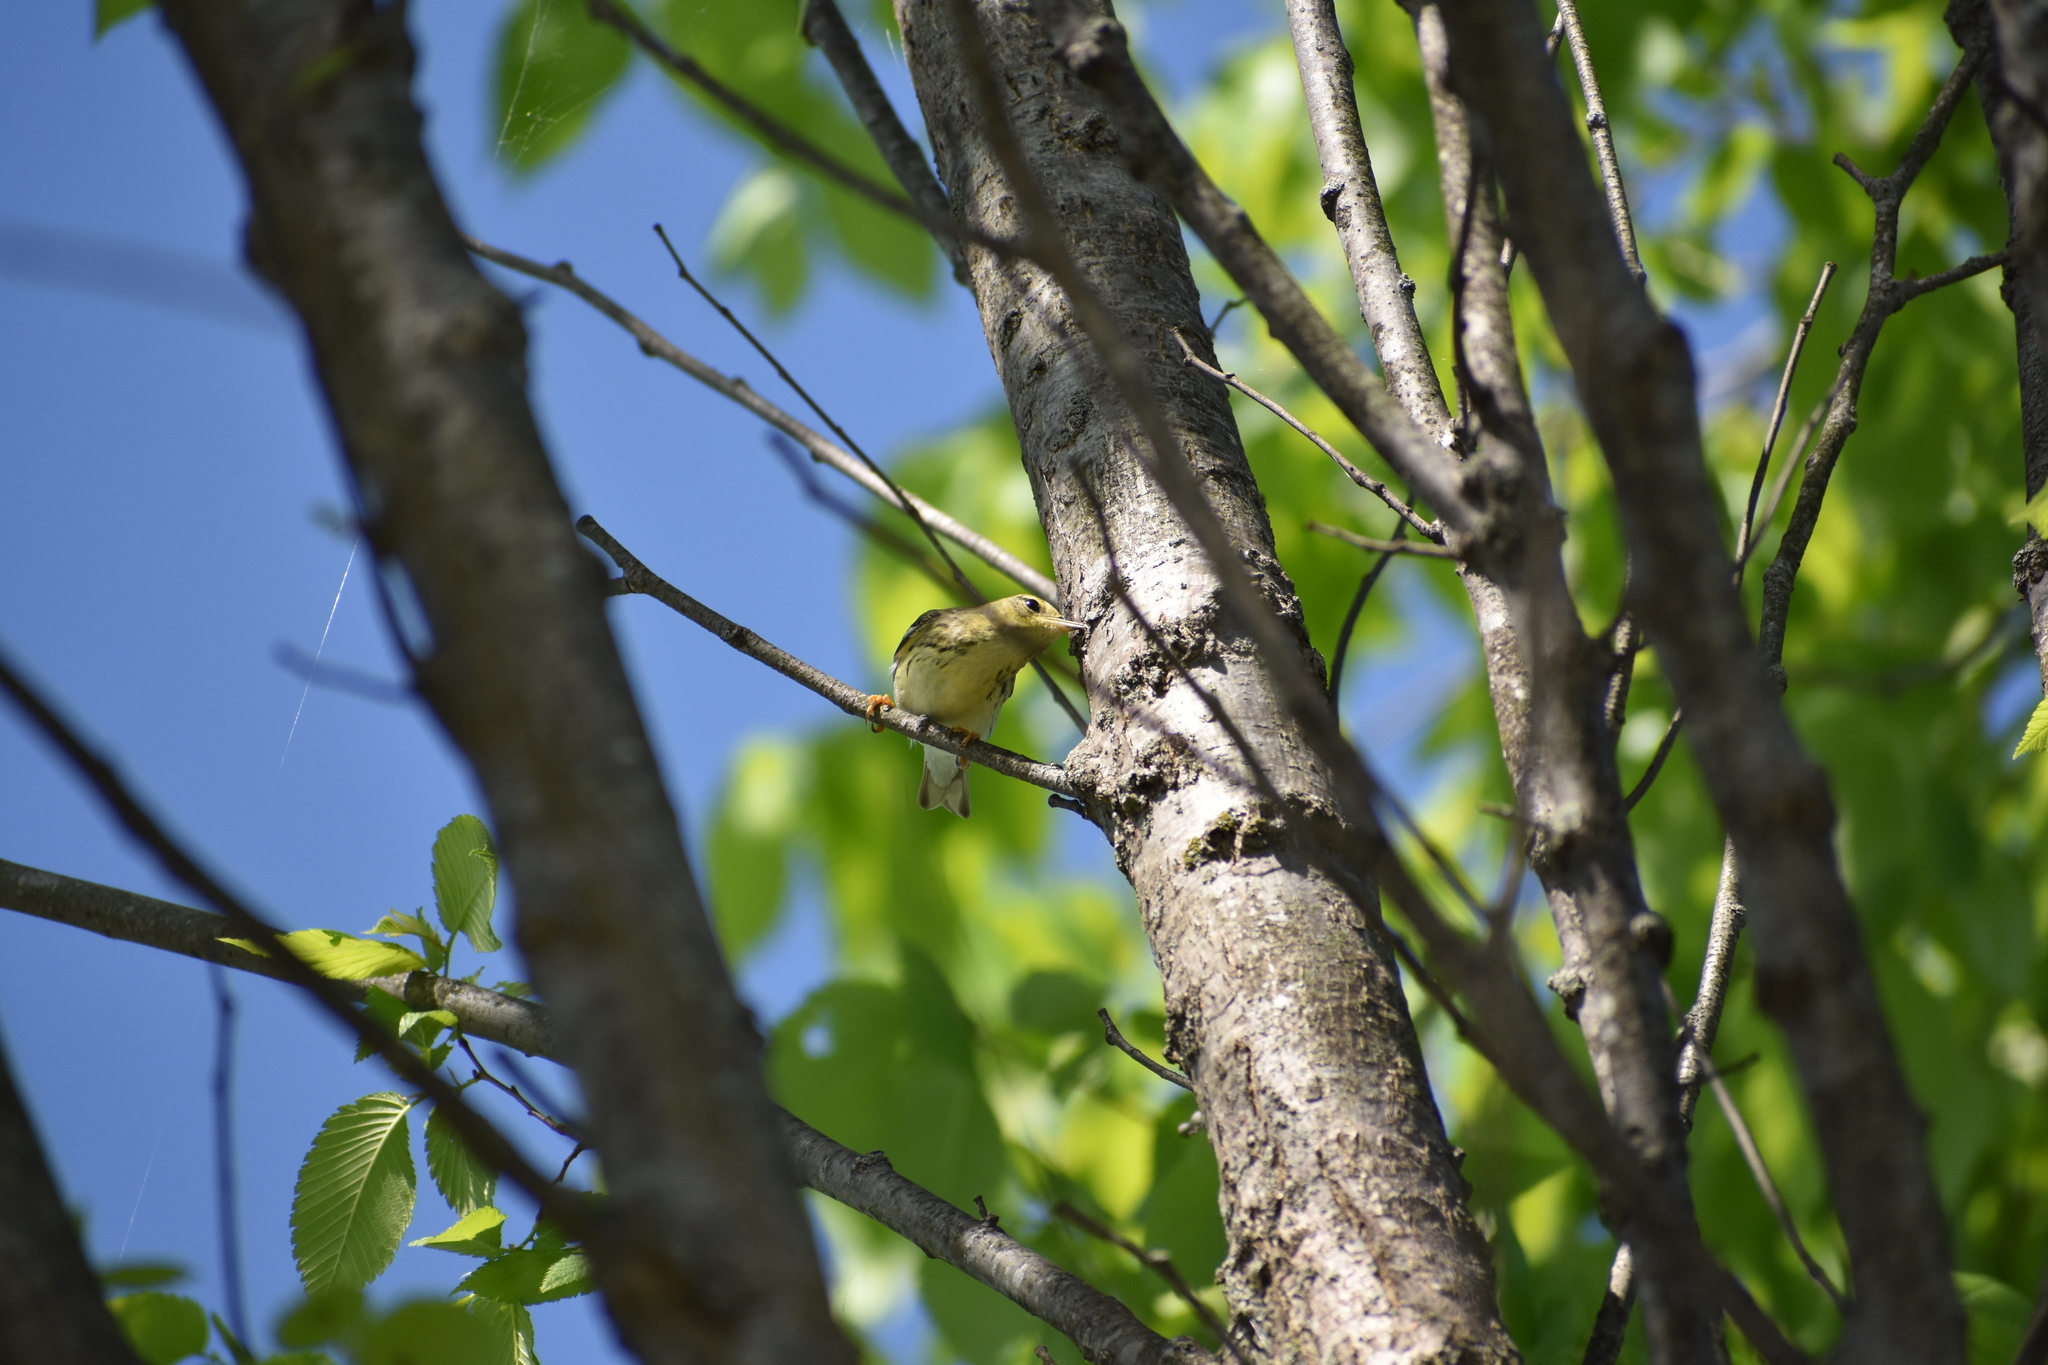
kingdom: Animalia
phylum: Chordata
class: Aves
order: Passeriformes
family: Parulidae
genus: Setophaga
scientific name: Setophaga striata
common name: Blackpoll warbler
